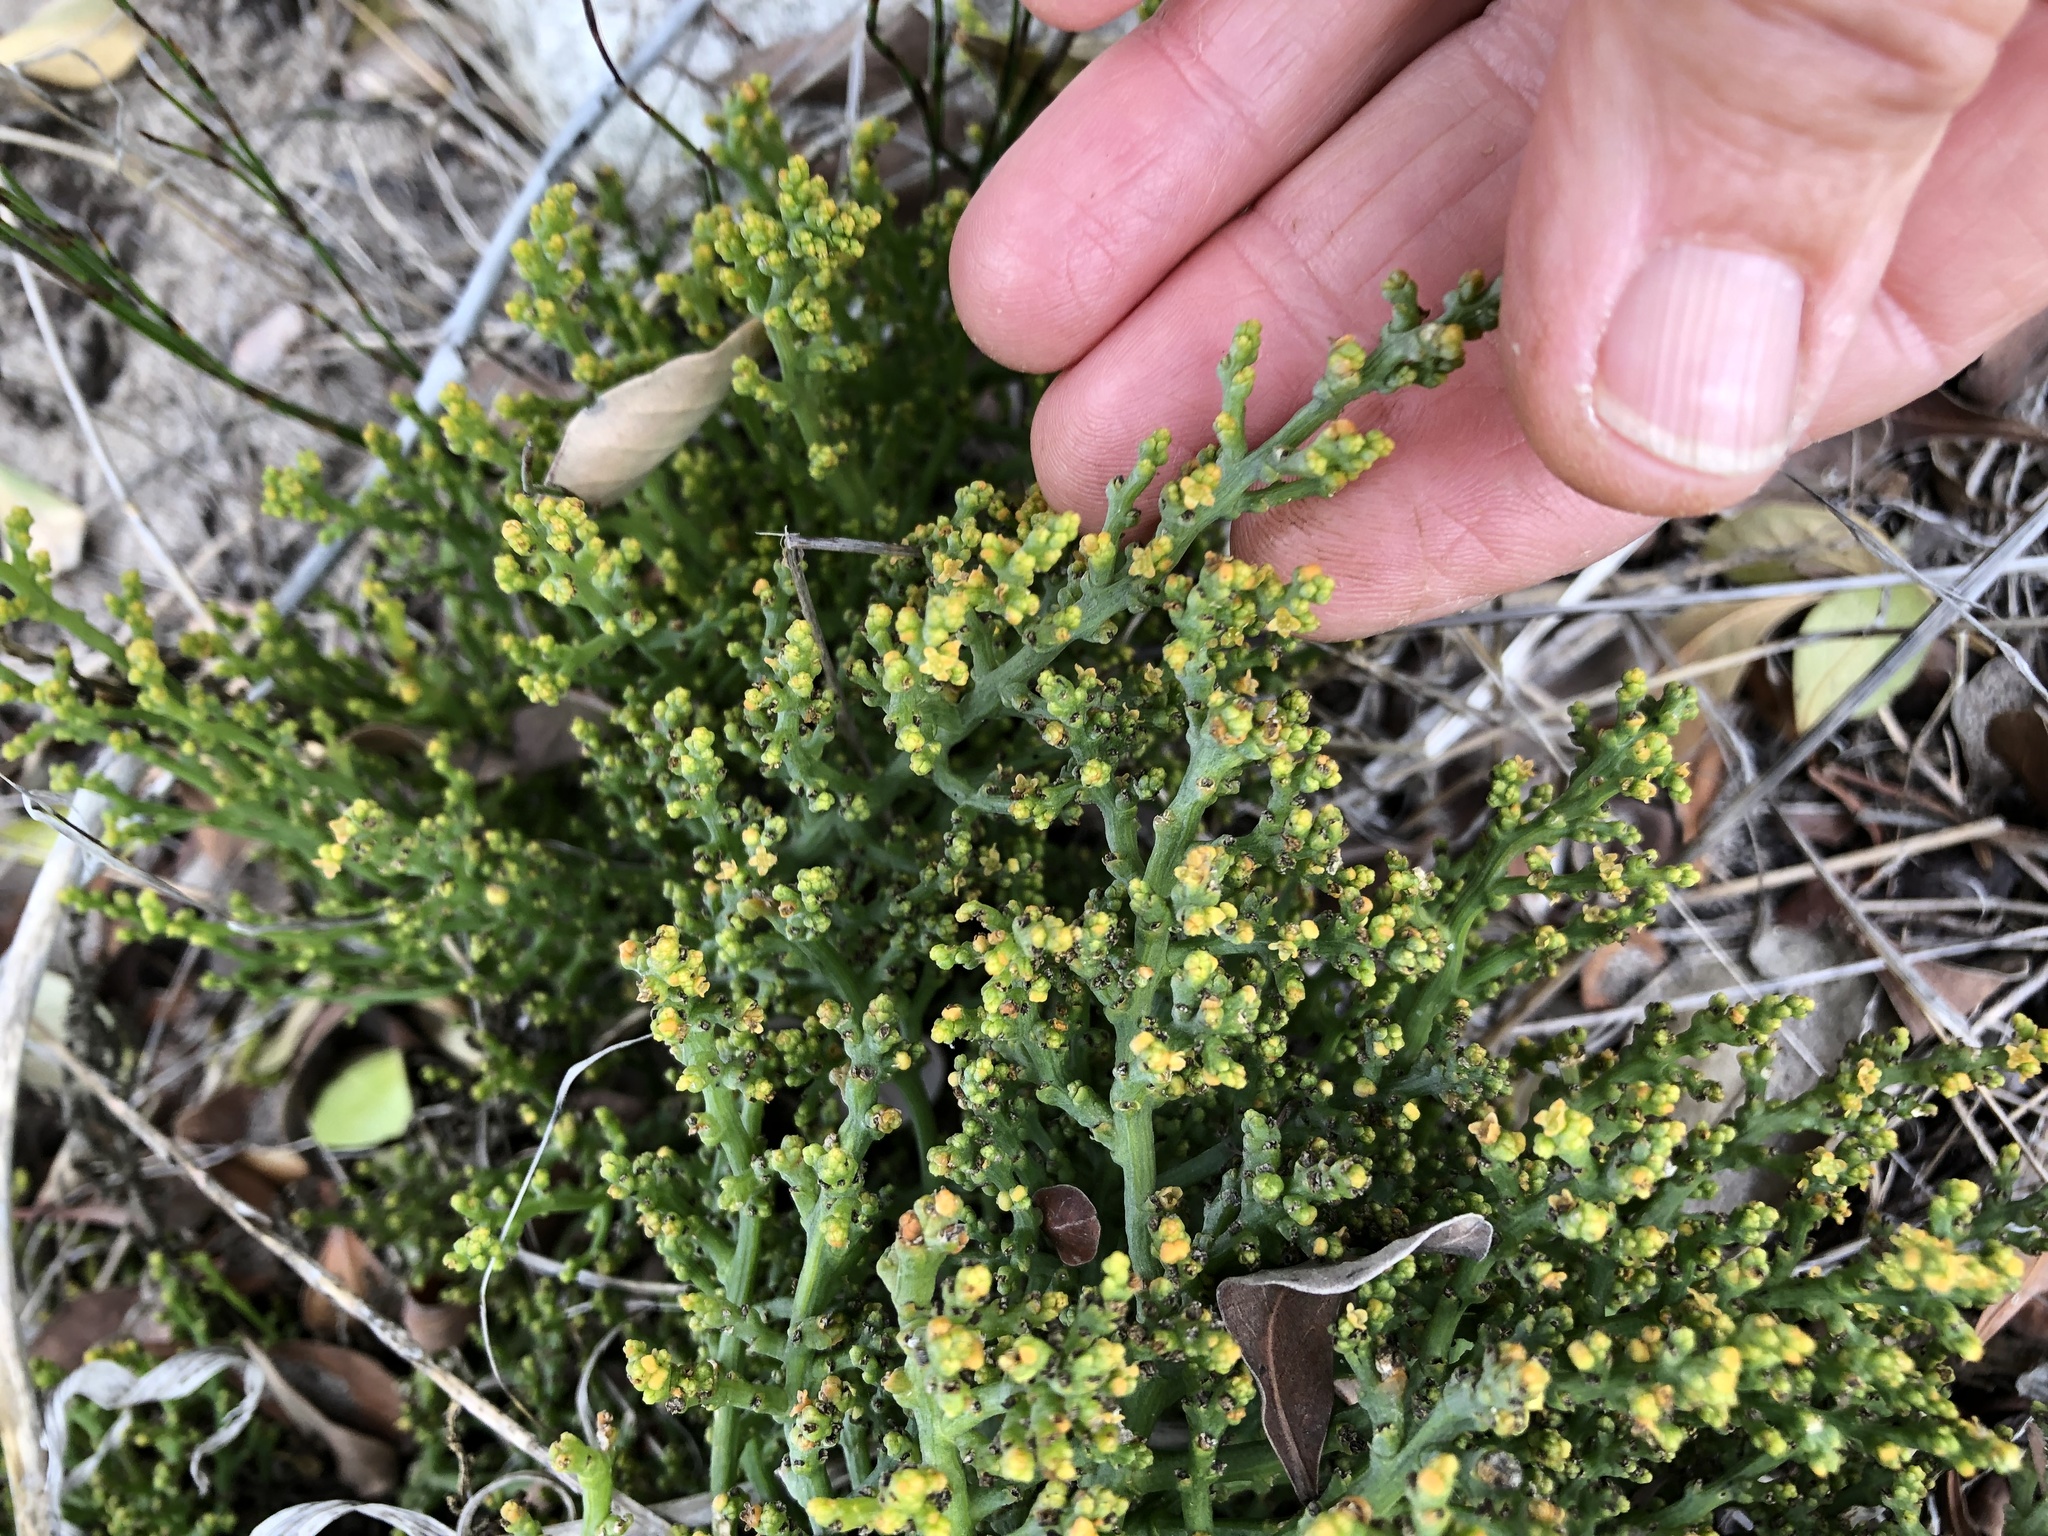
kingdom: Plantae
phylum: Tracheophyta
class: Magnoliopsida
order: Santalales
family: Thesiaceae
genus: Thesium
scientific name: Thesium fragile
